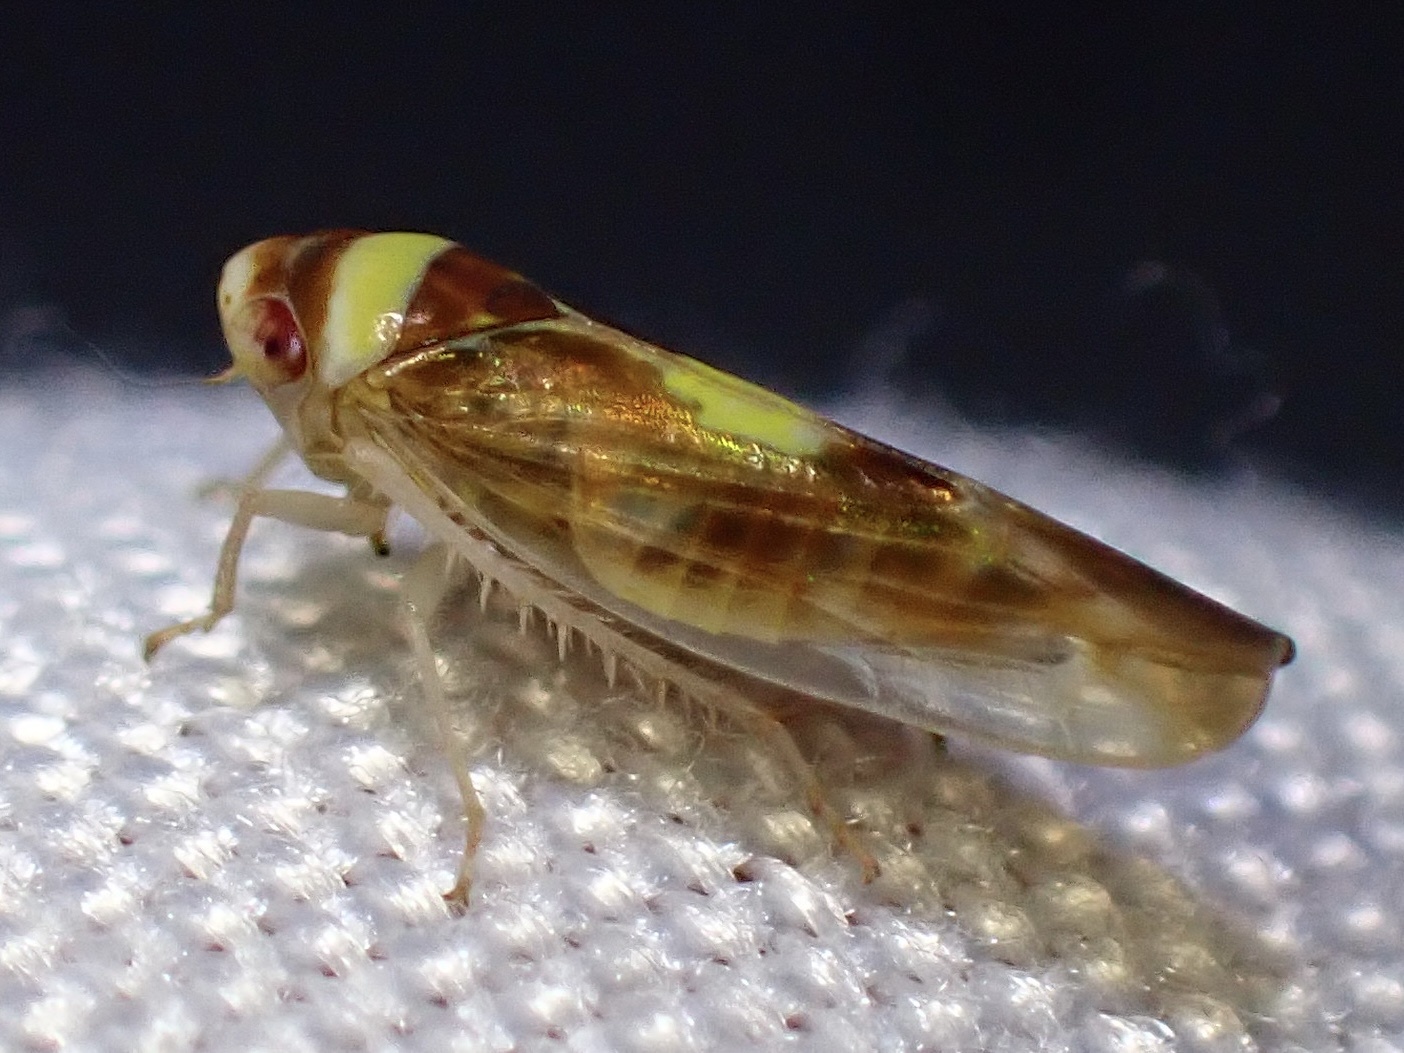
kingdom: Animalia
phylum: Arthropoda
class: Insecta
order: Hemiptera
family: Cicadellidae
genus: Colladonus
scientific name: Colladonus montanus
